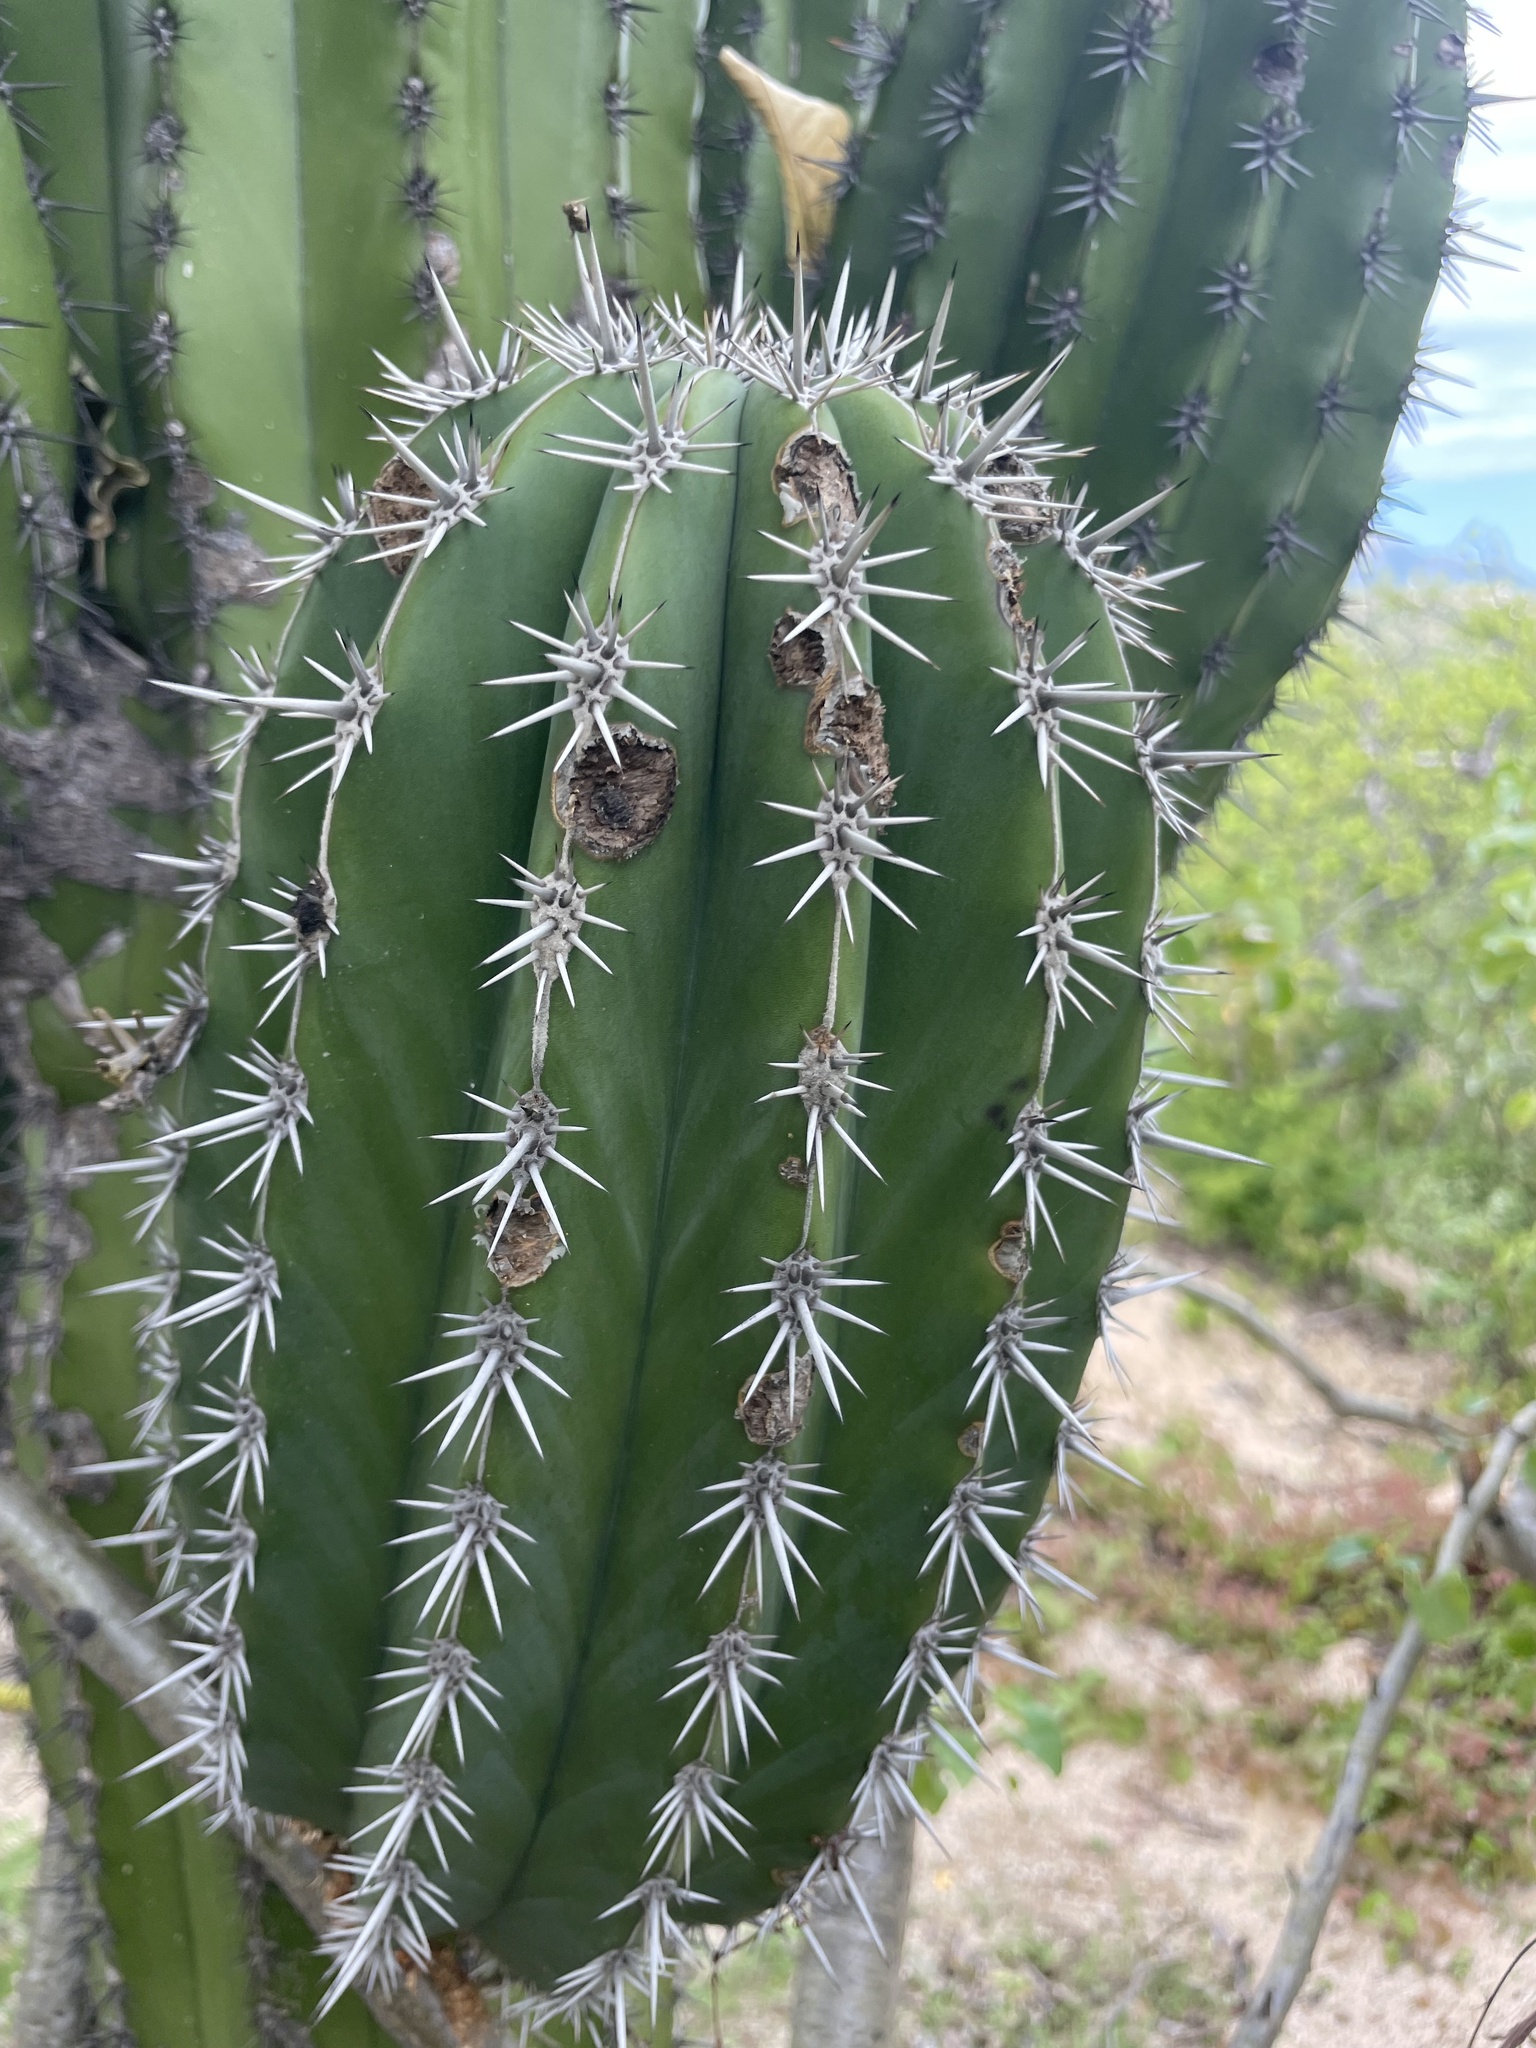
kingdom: Plantae
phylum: Tracheophyta
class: Magnoliopsida
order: Caryophyllales
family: Cactaceae
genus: Pachycereus
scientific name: Pachycereus pringlei
